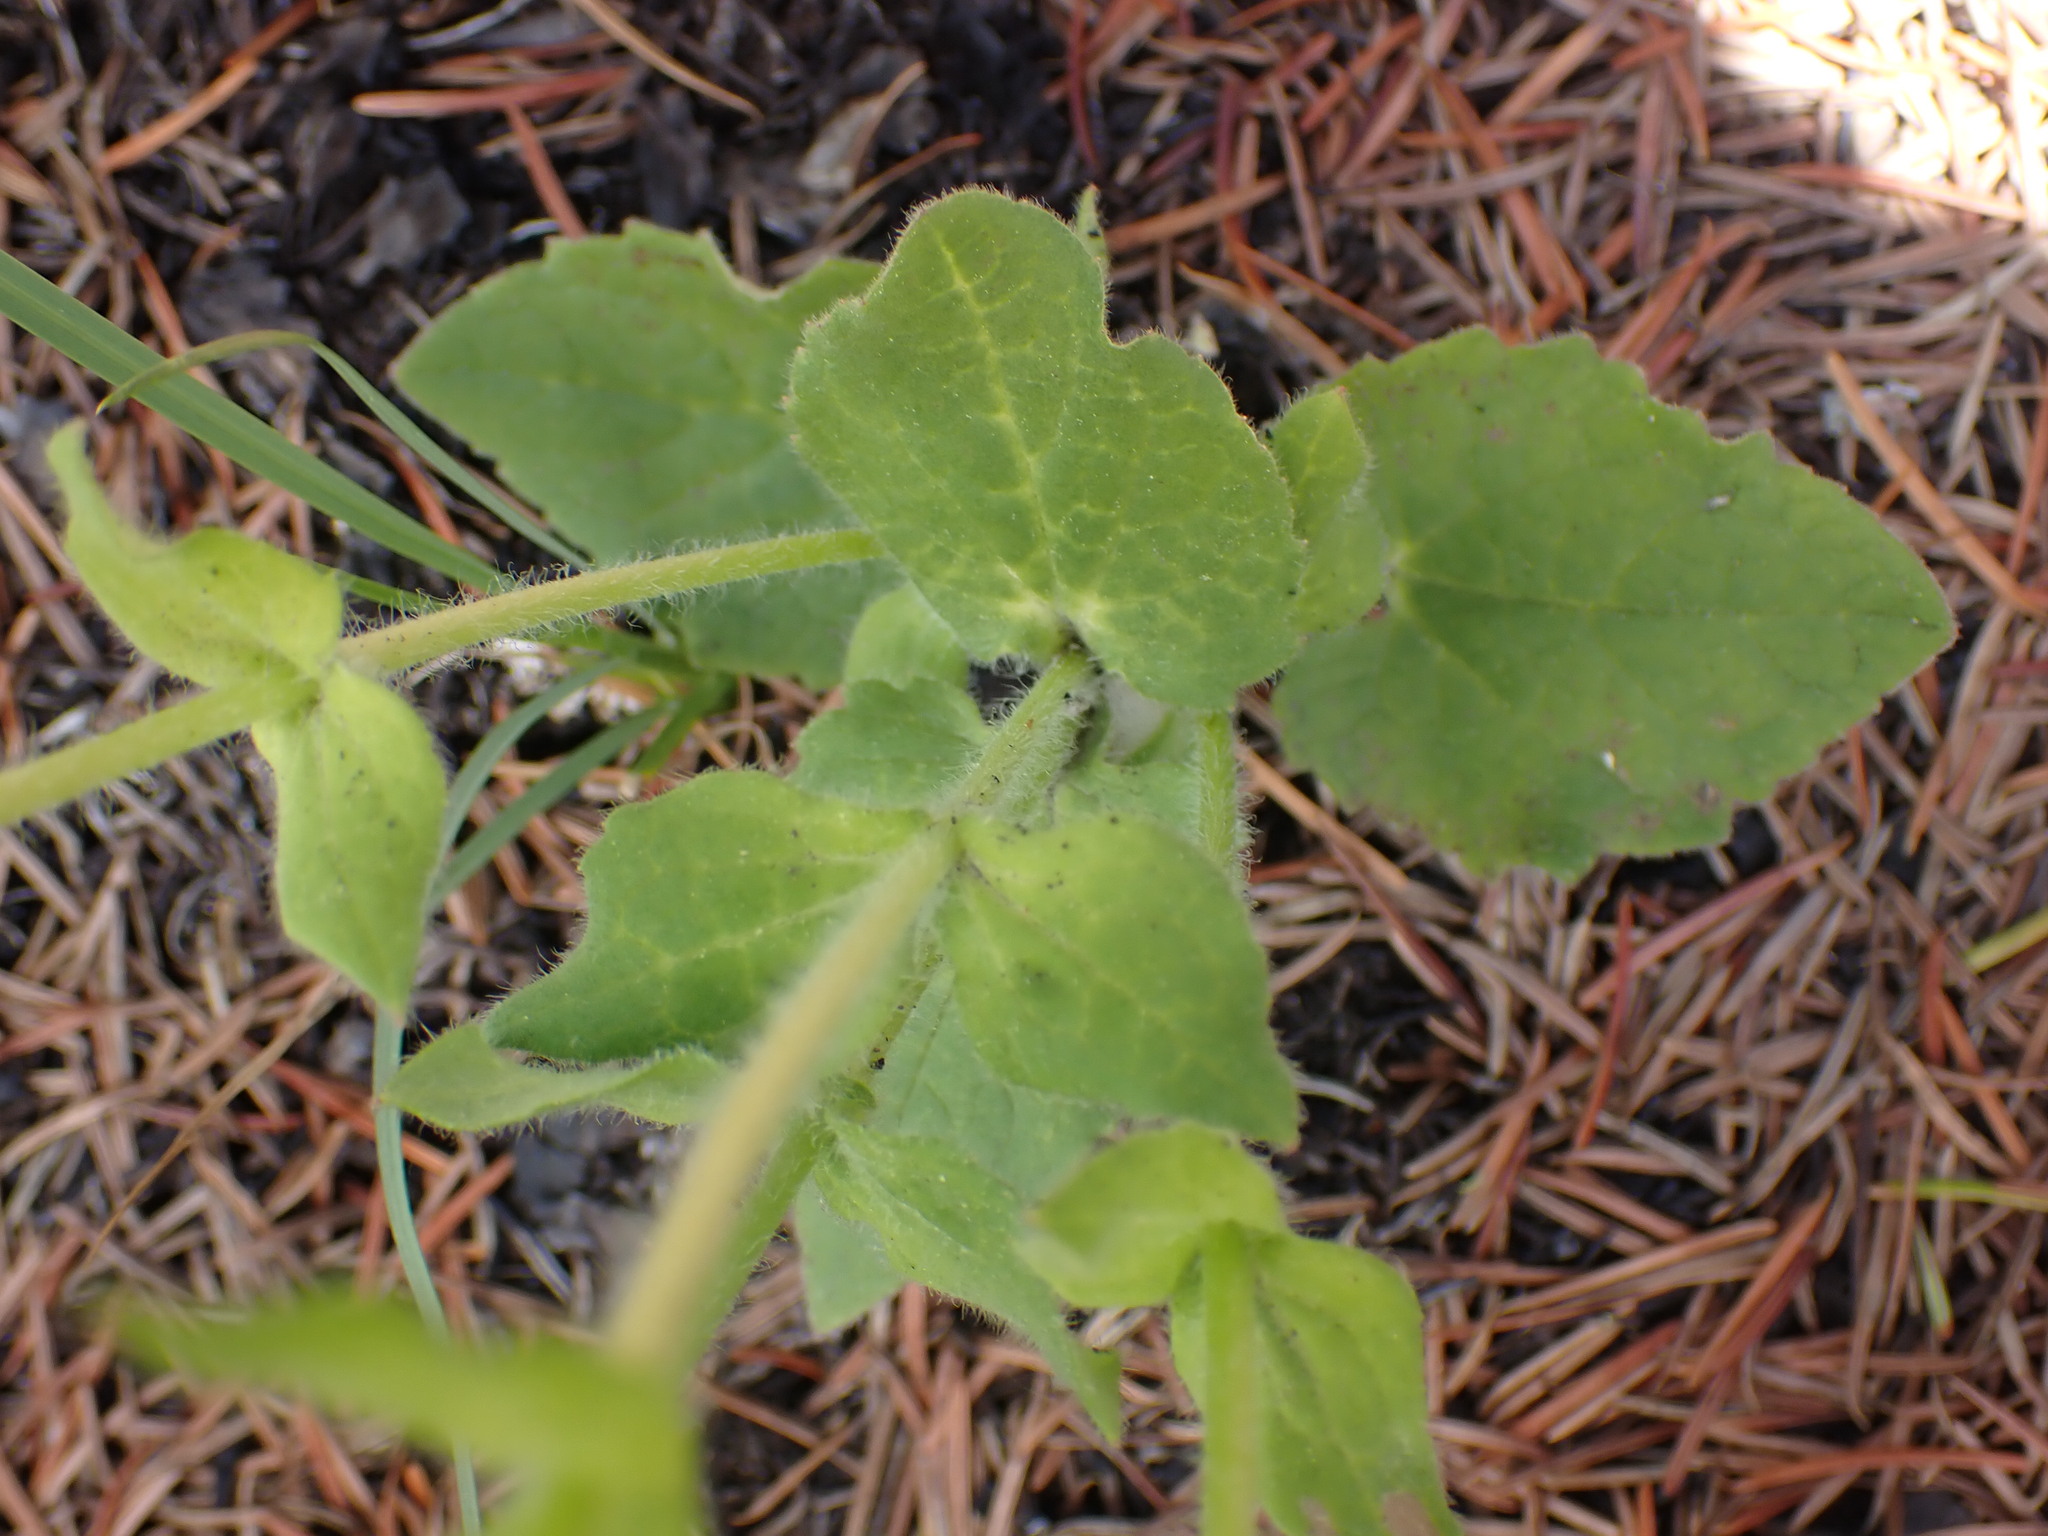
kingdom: Plantae
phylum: Tracheophyta
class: Magnoliopsida
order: Asterales
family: Asteraceae
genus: Arnica
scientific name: Arnica cordifolia
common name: Heart-leaf arnica
